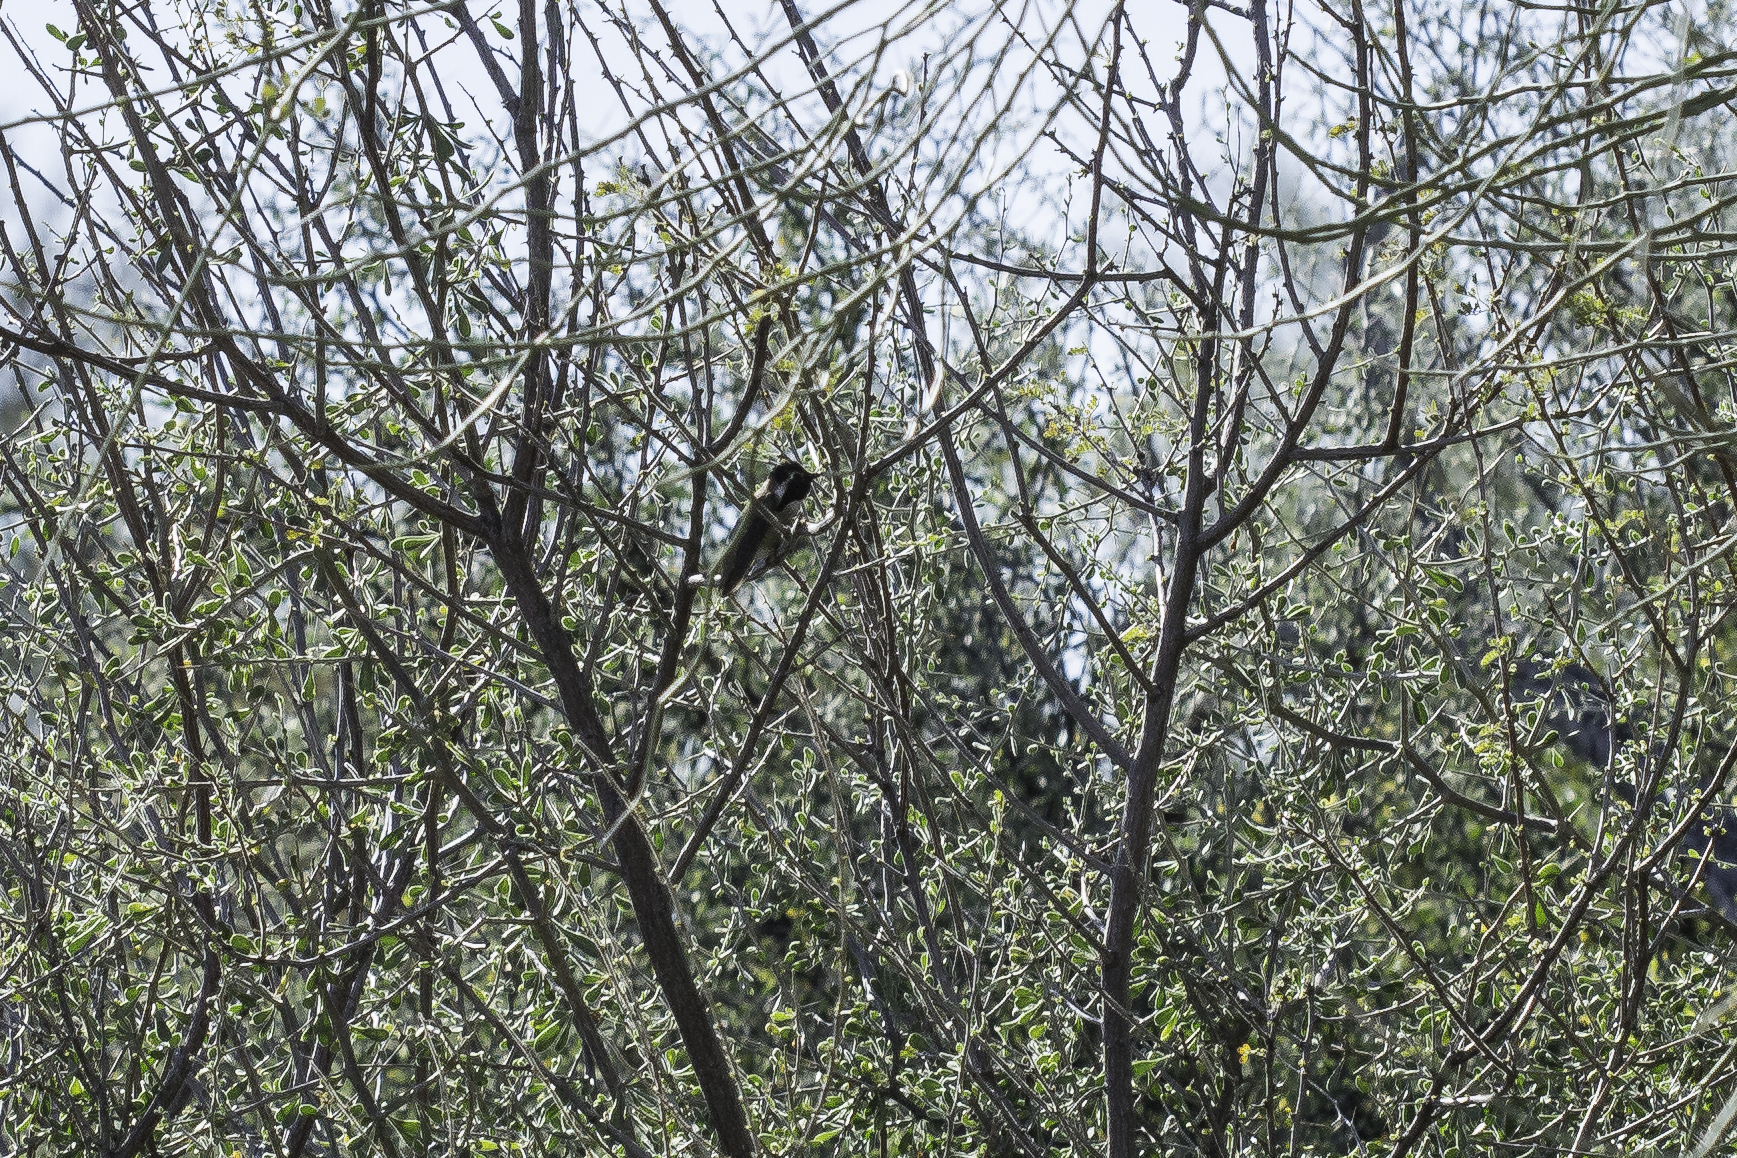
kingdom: Animalia
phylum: Chordata
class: Aves
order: Apodiformes
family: Trochilidae
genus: Calypte
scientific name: Calypte costae
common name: Costa's hummingbird
